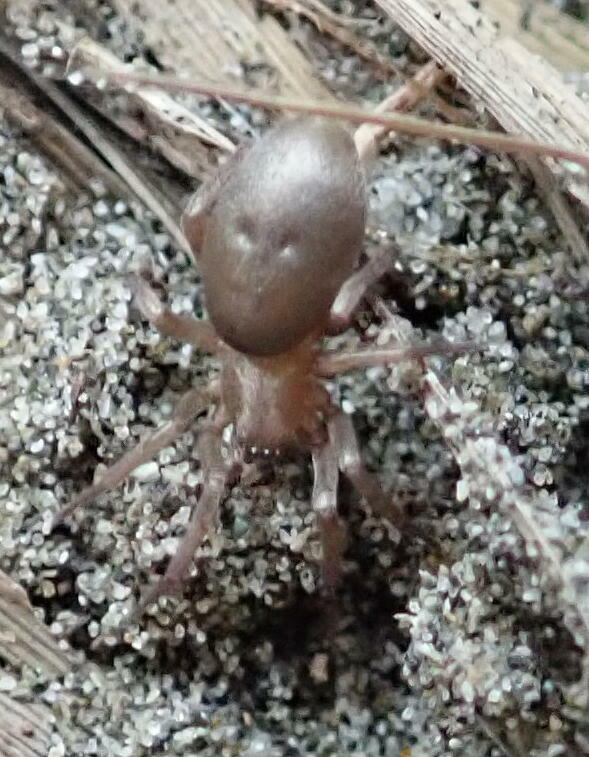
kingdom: Animalia
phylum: Arthropoda
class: Arachnida
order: Araneae
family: Gnaphosidae
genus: Hypodrassodes
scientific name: Hypodrassodes maoricus
